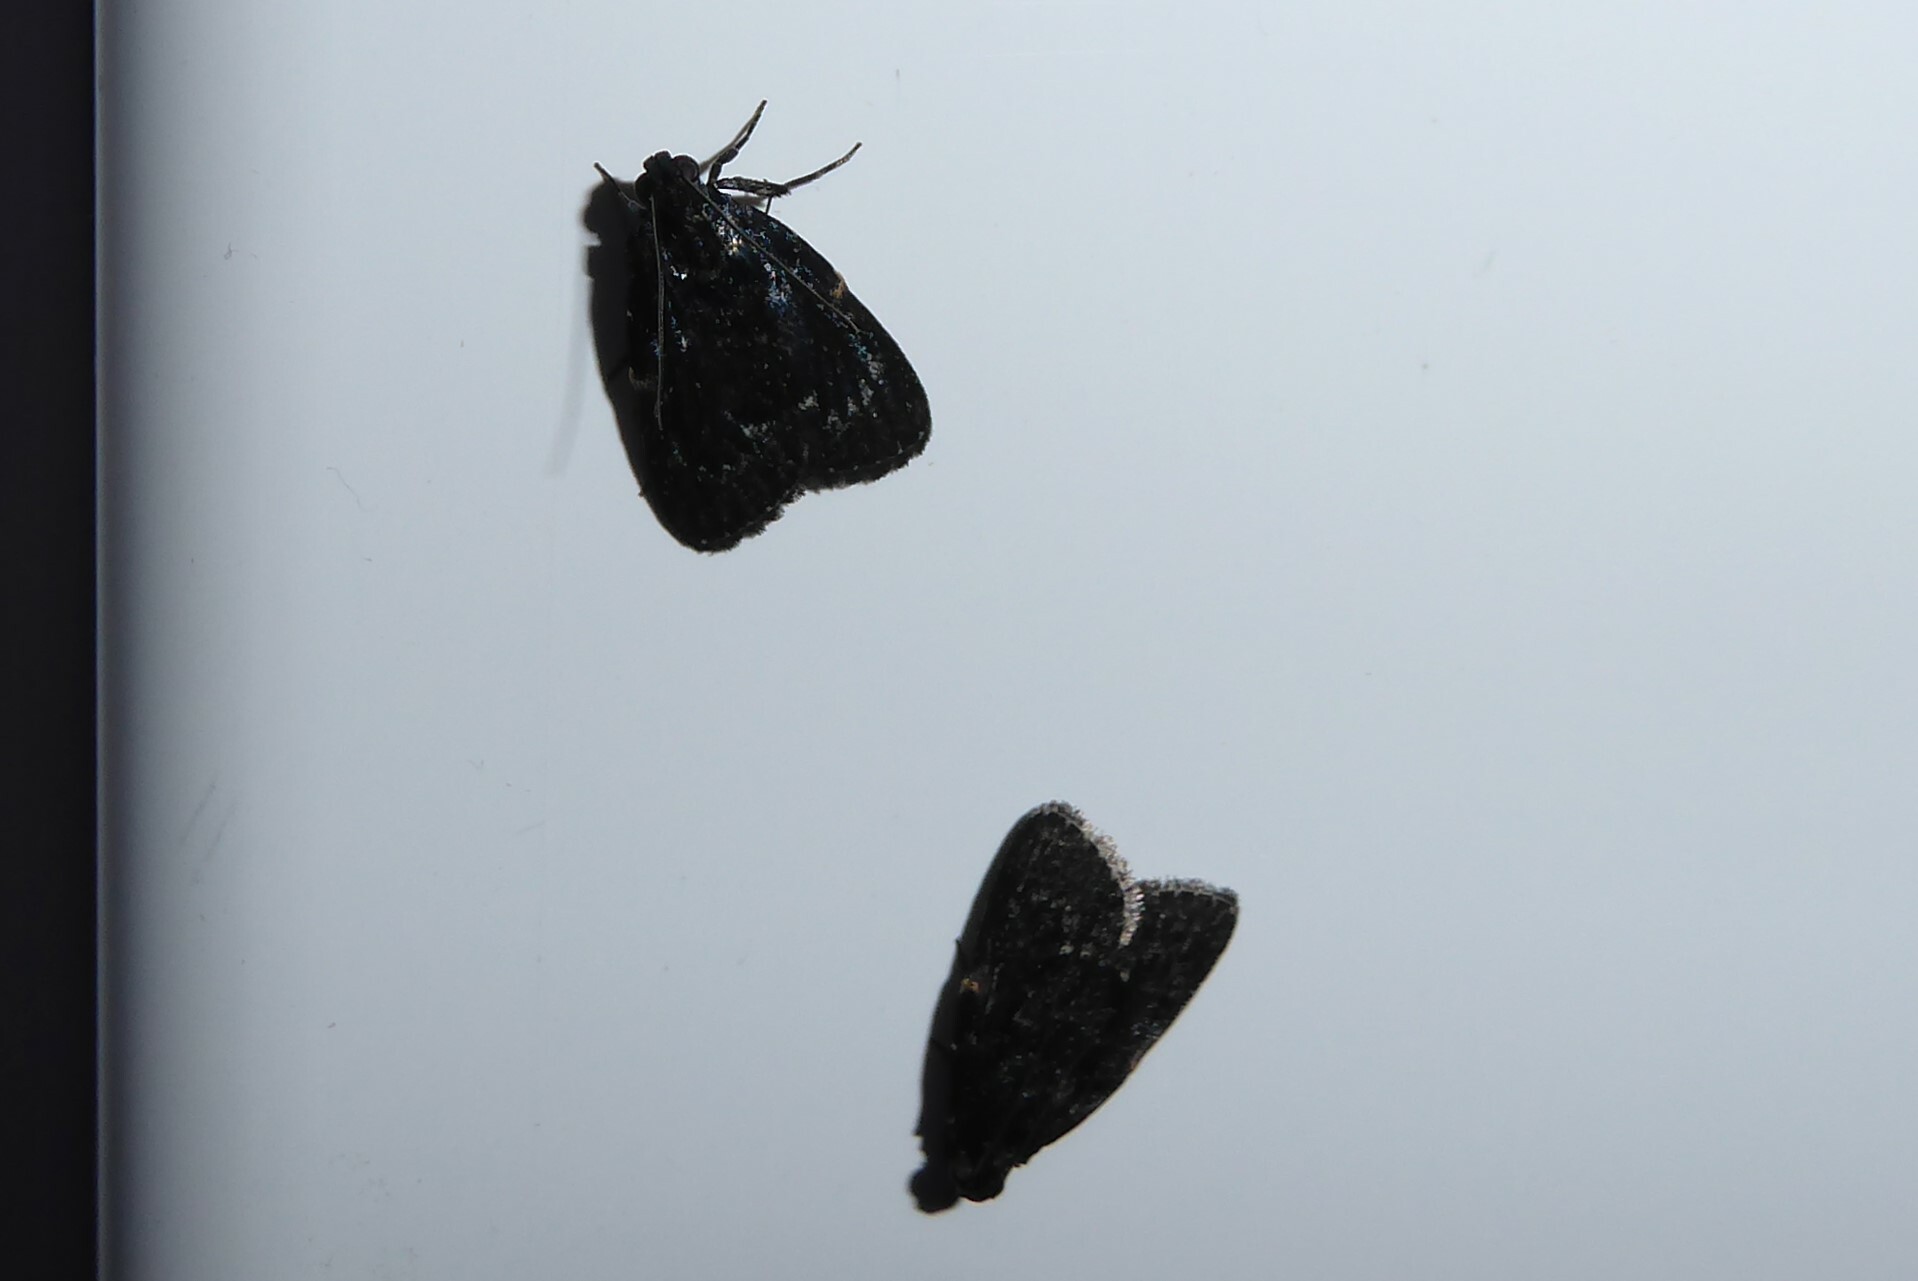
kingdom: Animalia
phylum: Arthropoda
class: Insecta
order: Lepidoptera
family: Pyralidae
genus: Stericta
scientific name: Stericta carbonalis
